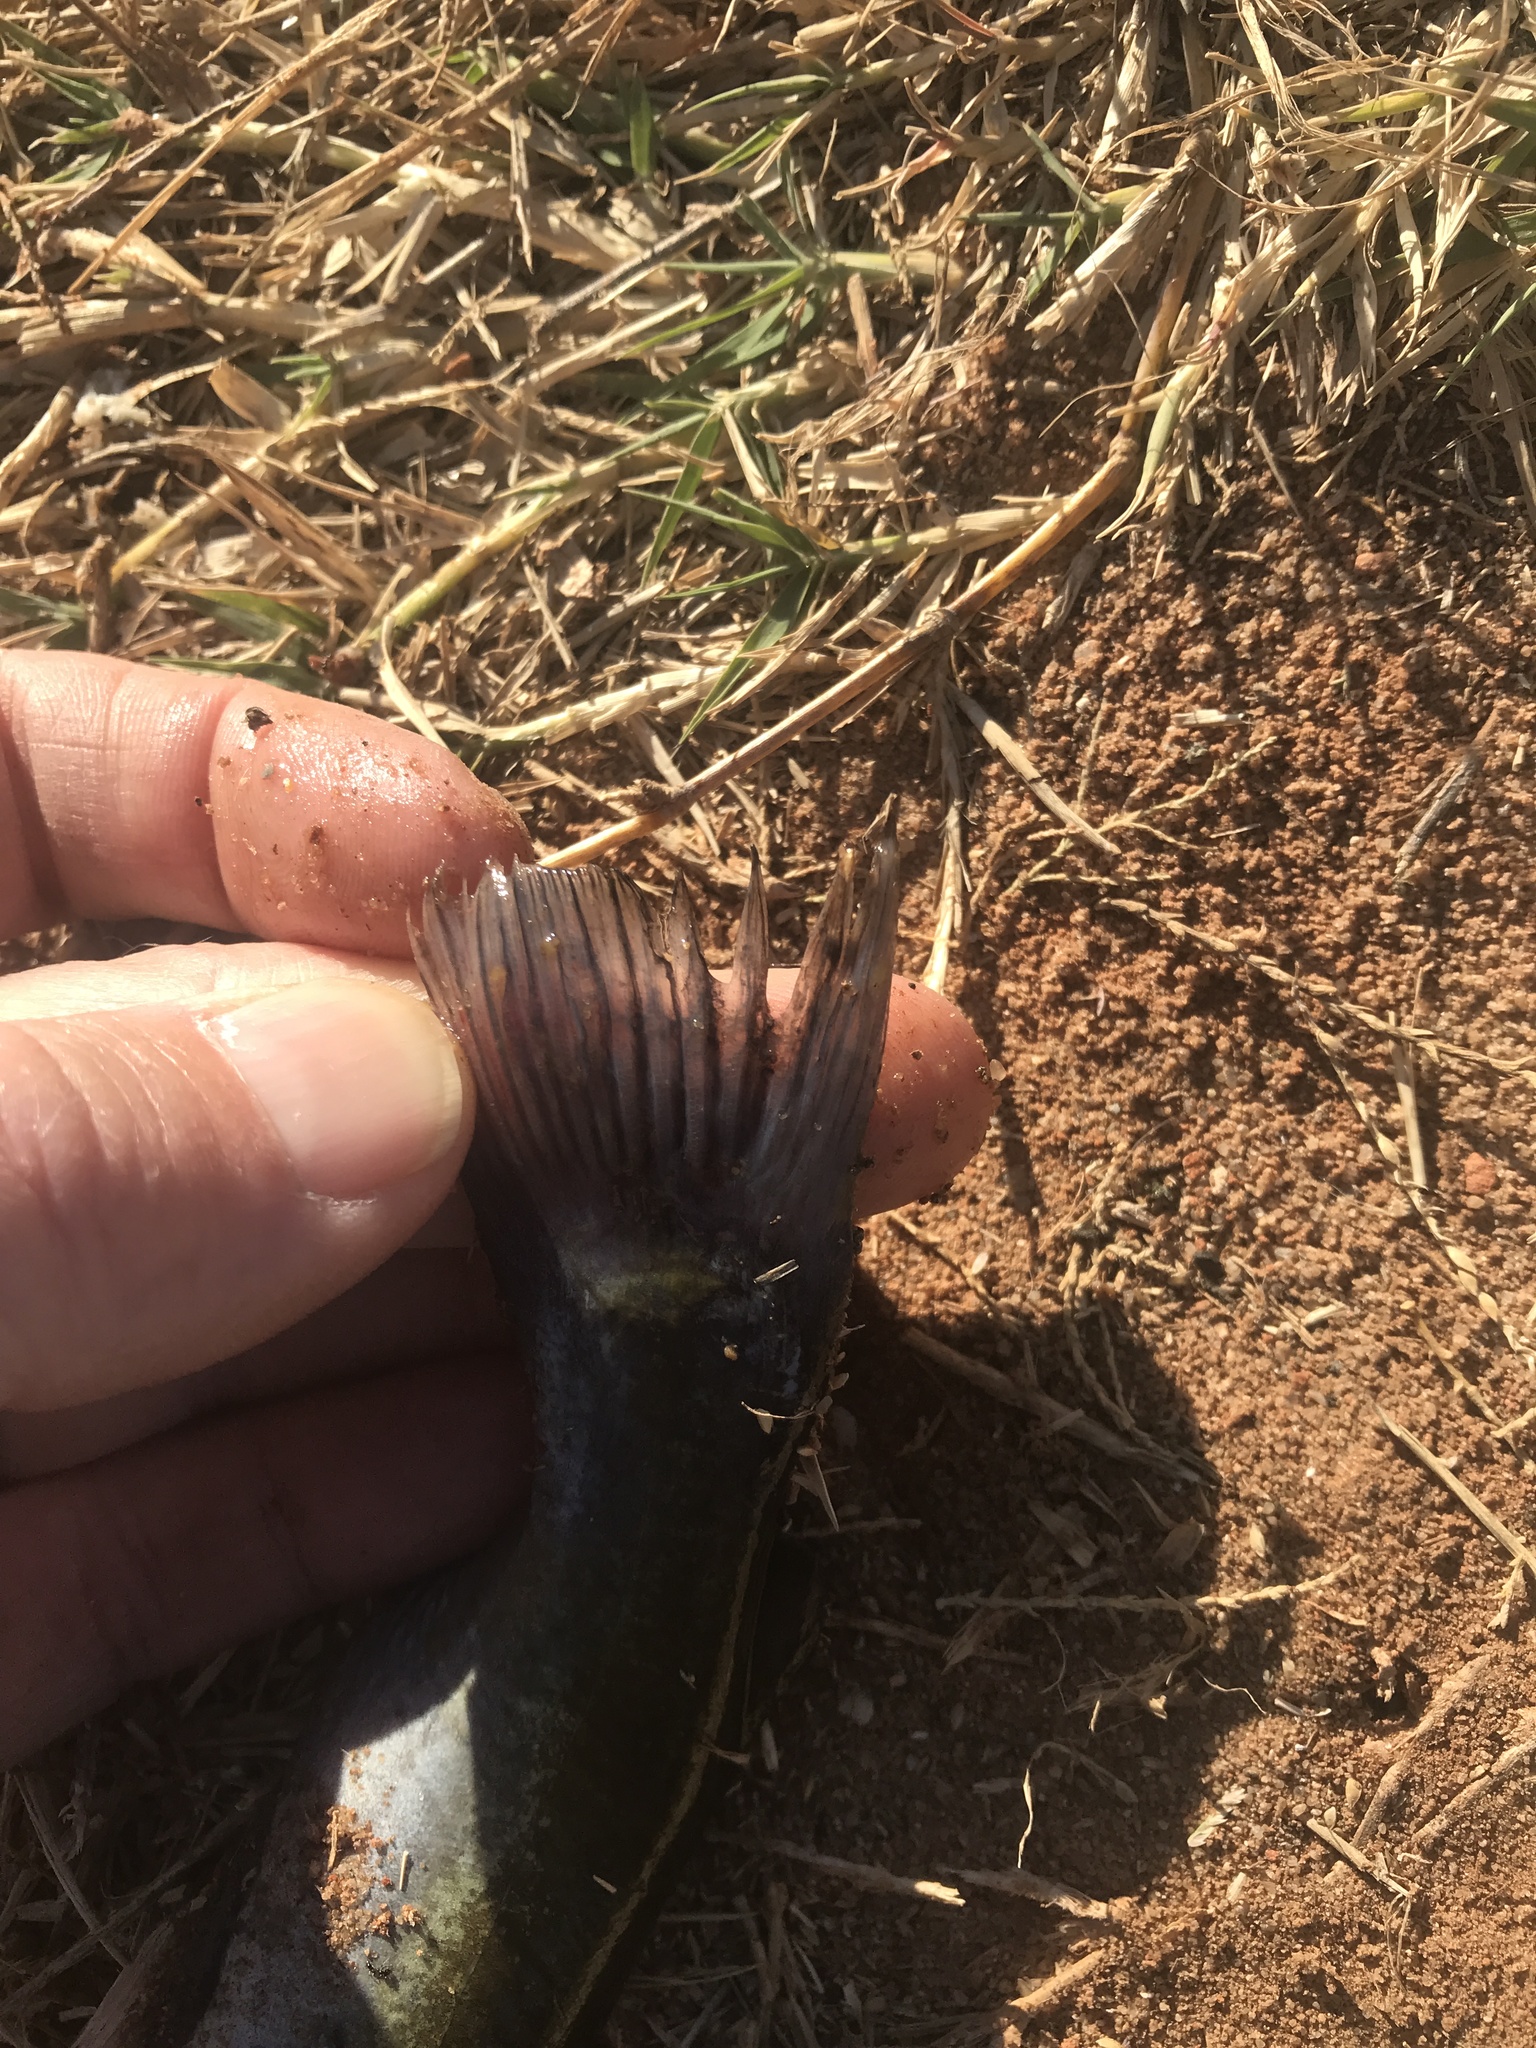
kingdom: Animalia
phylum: Chordata
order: Siluriformes
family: Ictaluridae
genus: Ameiurus
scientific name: Ameiurus melas
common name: Black bullhead
